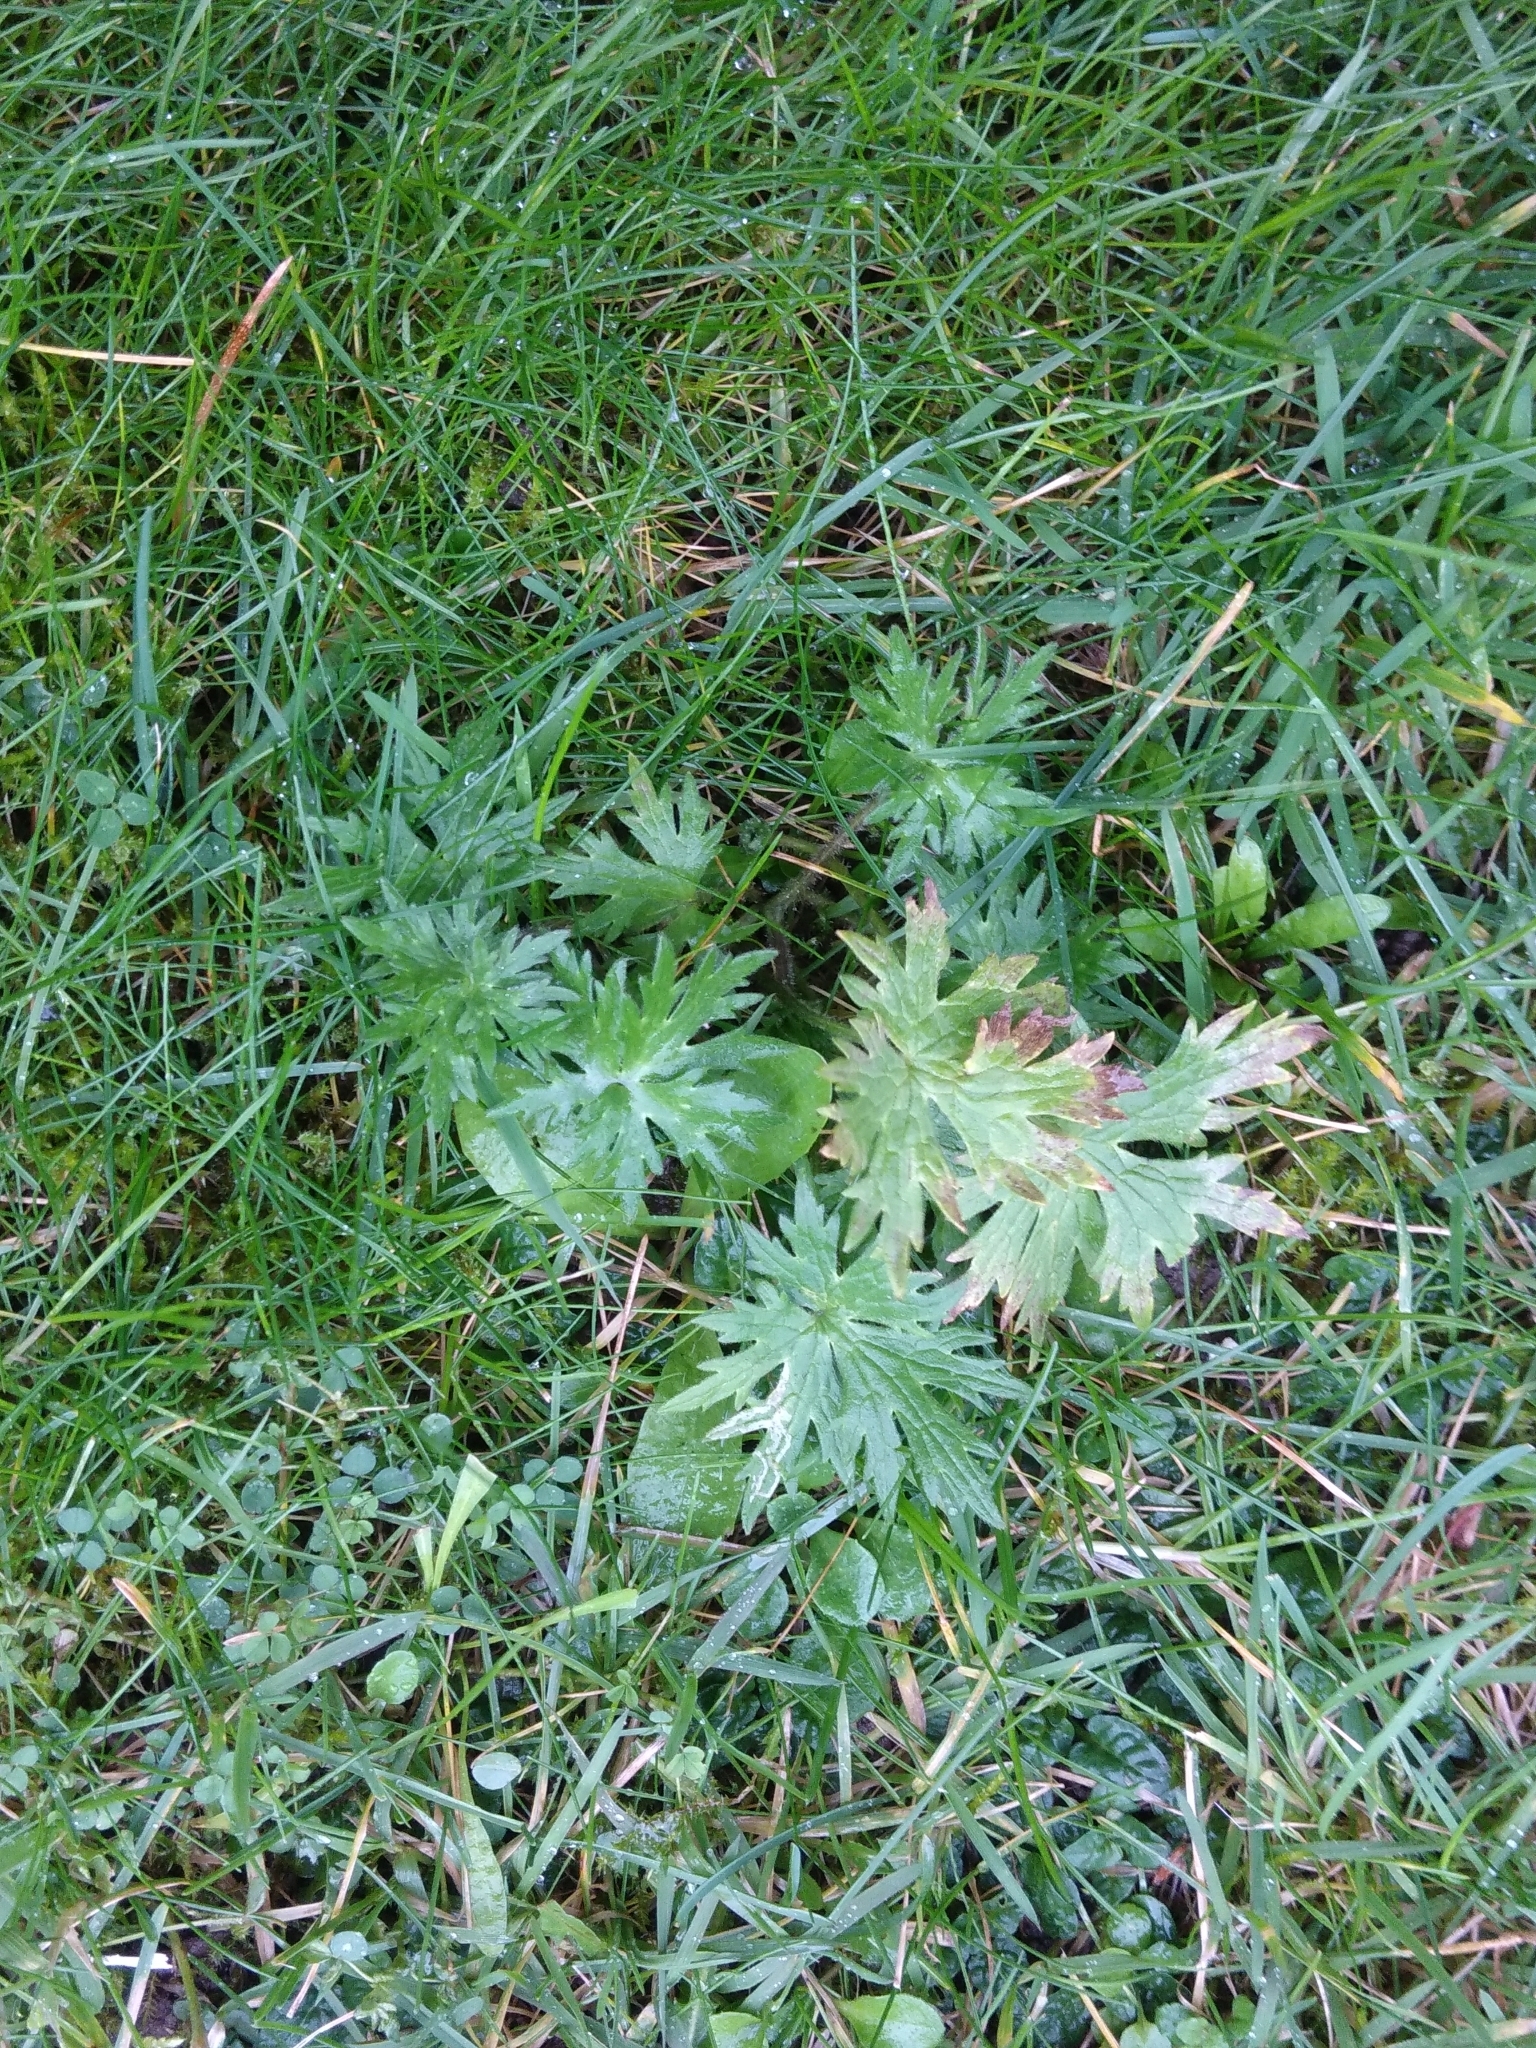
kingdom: Plantae
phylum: Tracheophyta
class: Magnoliopsida
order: Ranunculales
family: Ranunculaceae
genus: Ranunculus
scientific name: Ranunculus acris
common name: Meadow buttercup
